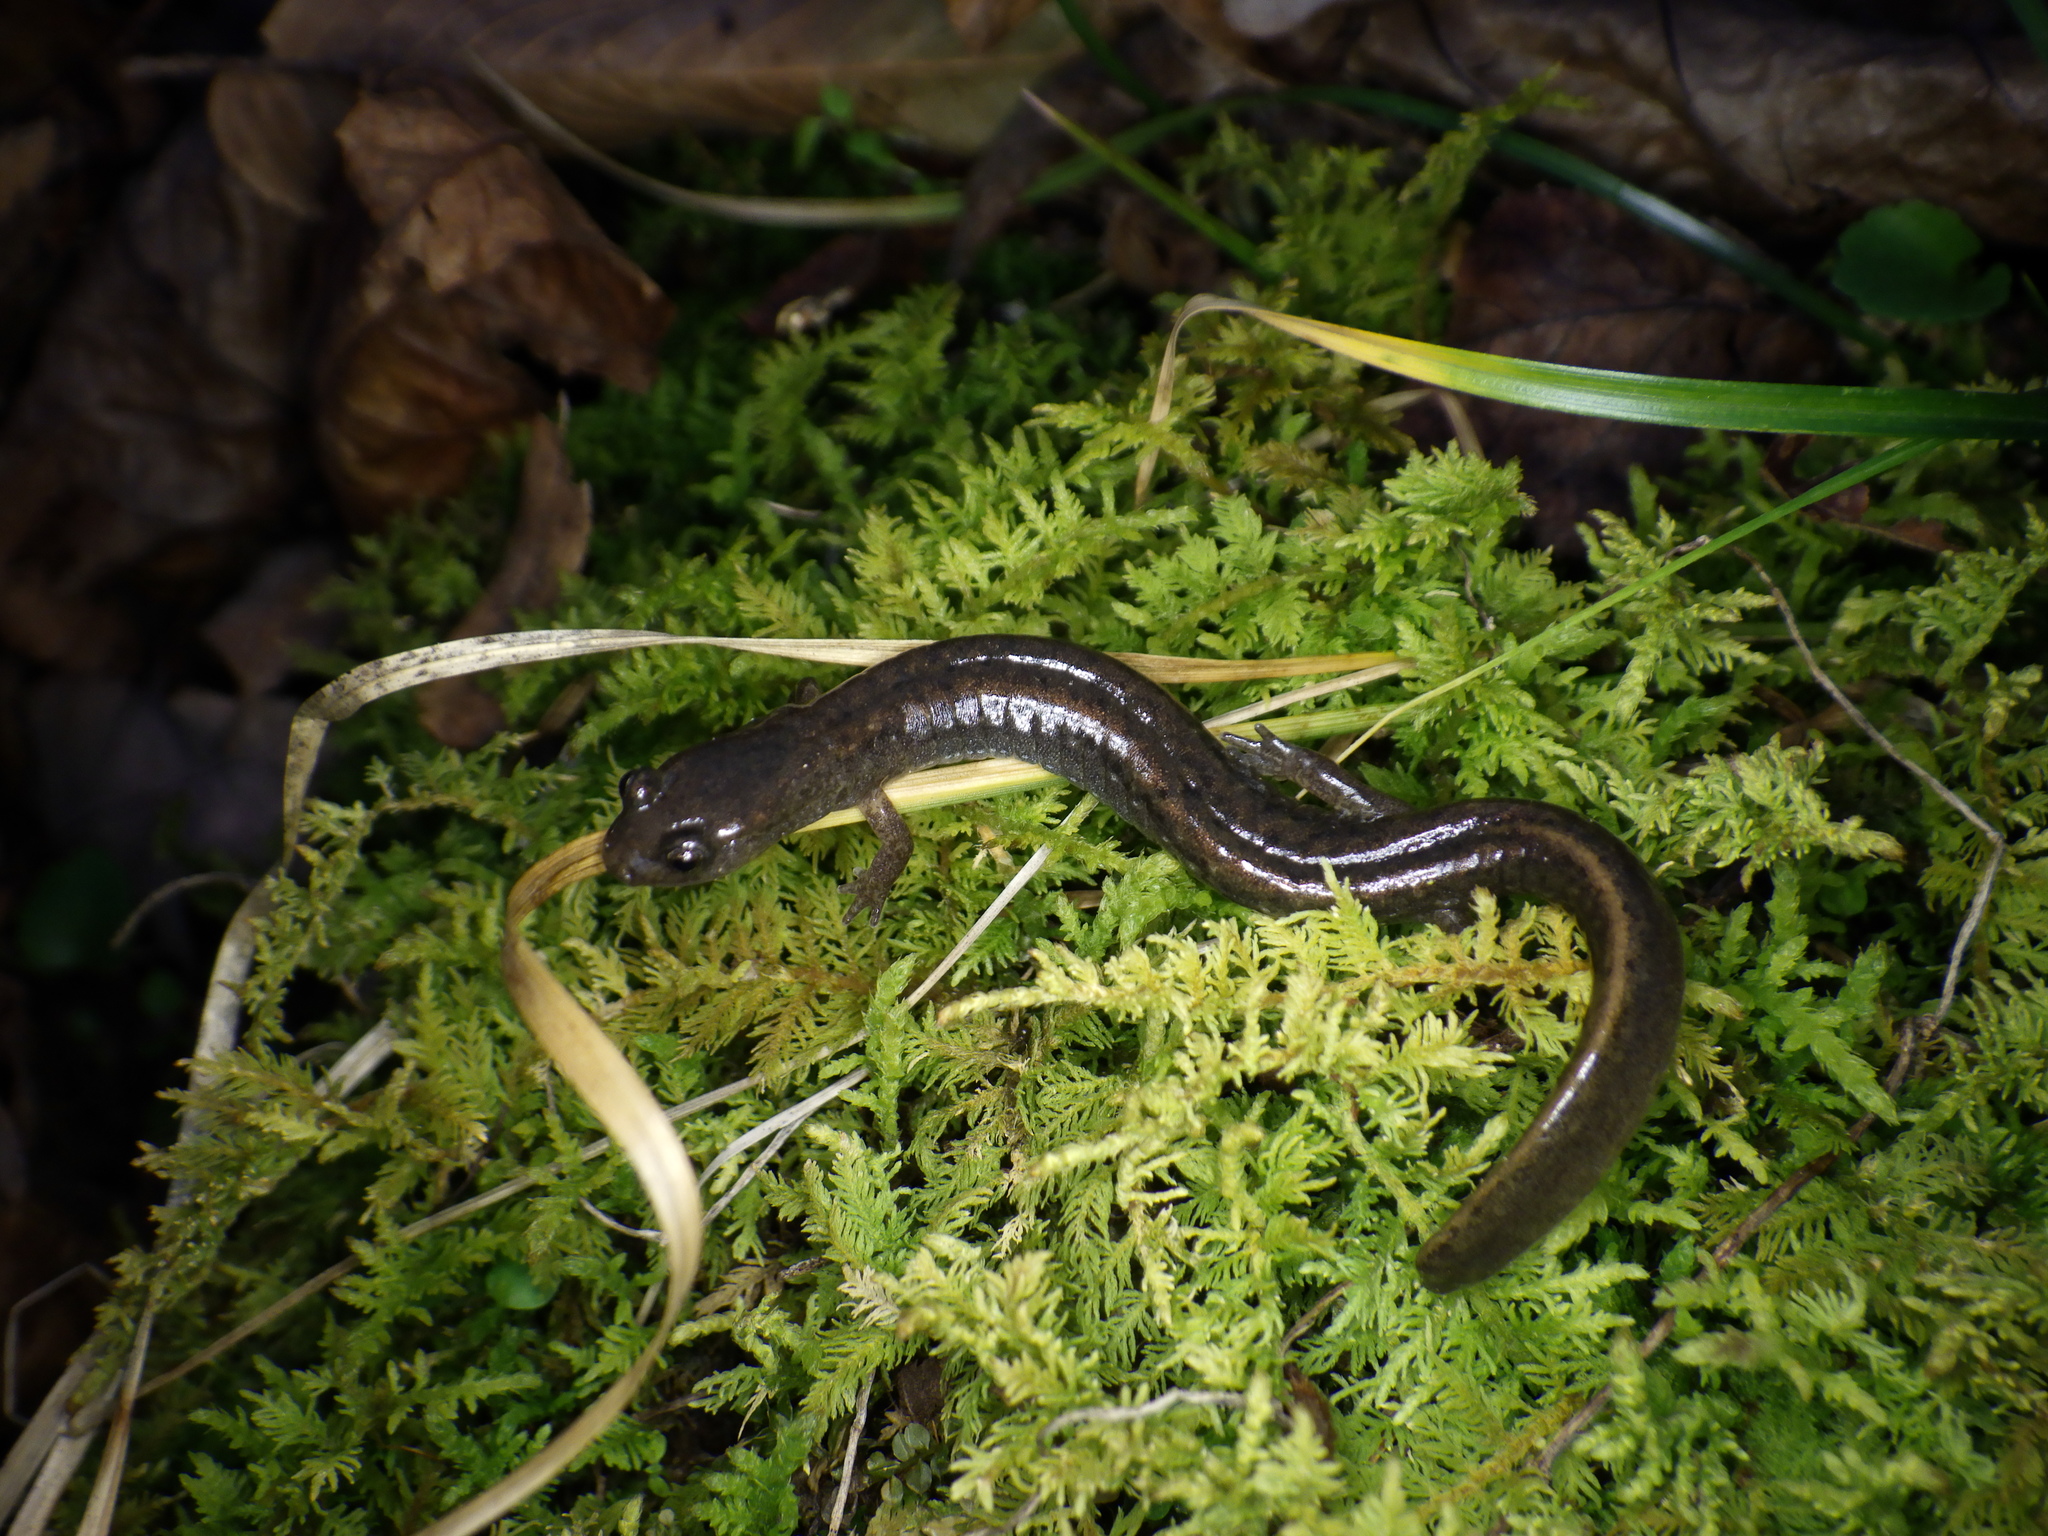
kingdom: Animalia
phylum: Chordata
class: Amphibia
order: Caudata
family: Plethodontidae
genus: Eurycea
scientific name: Eurycea tynerensis
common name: Oklahoma salamander
